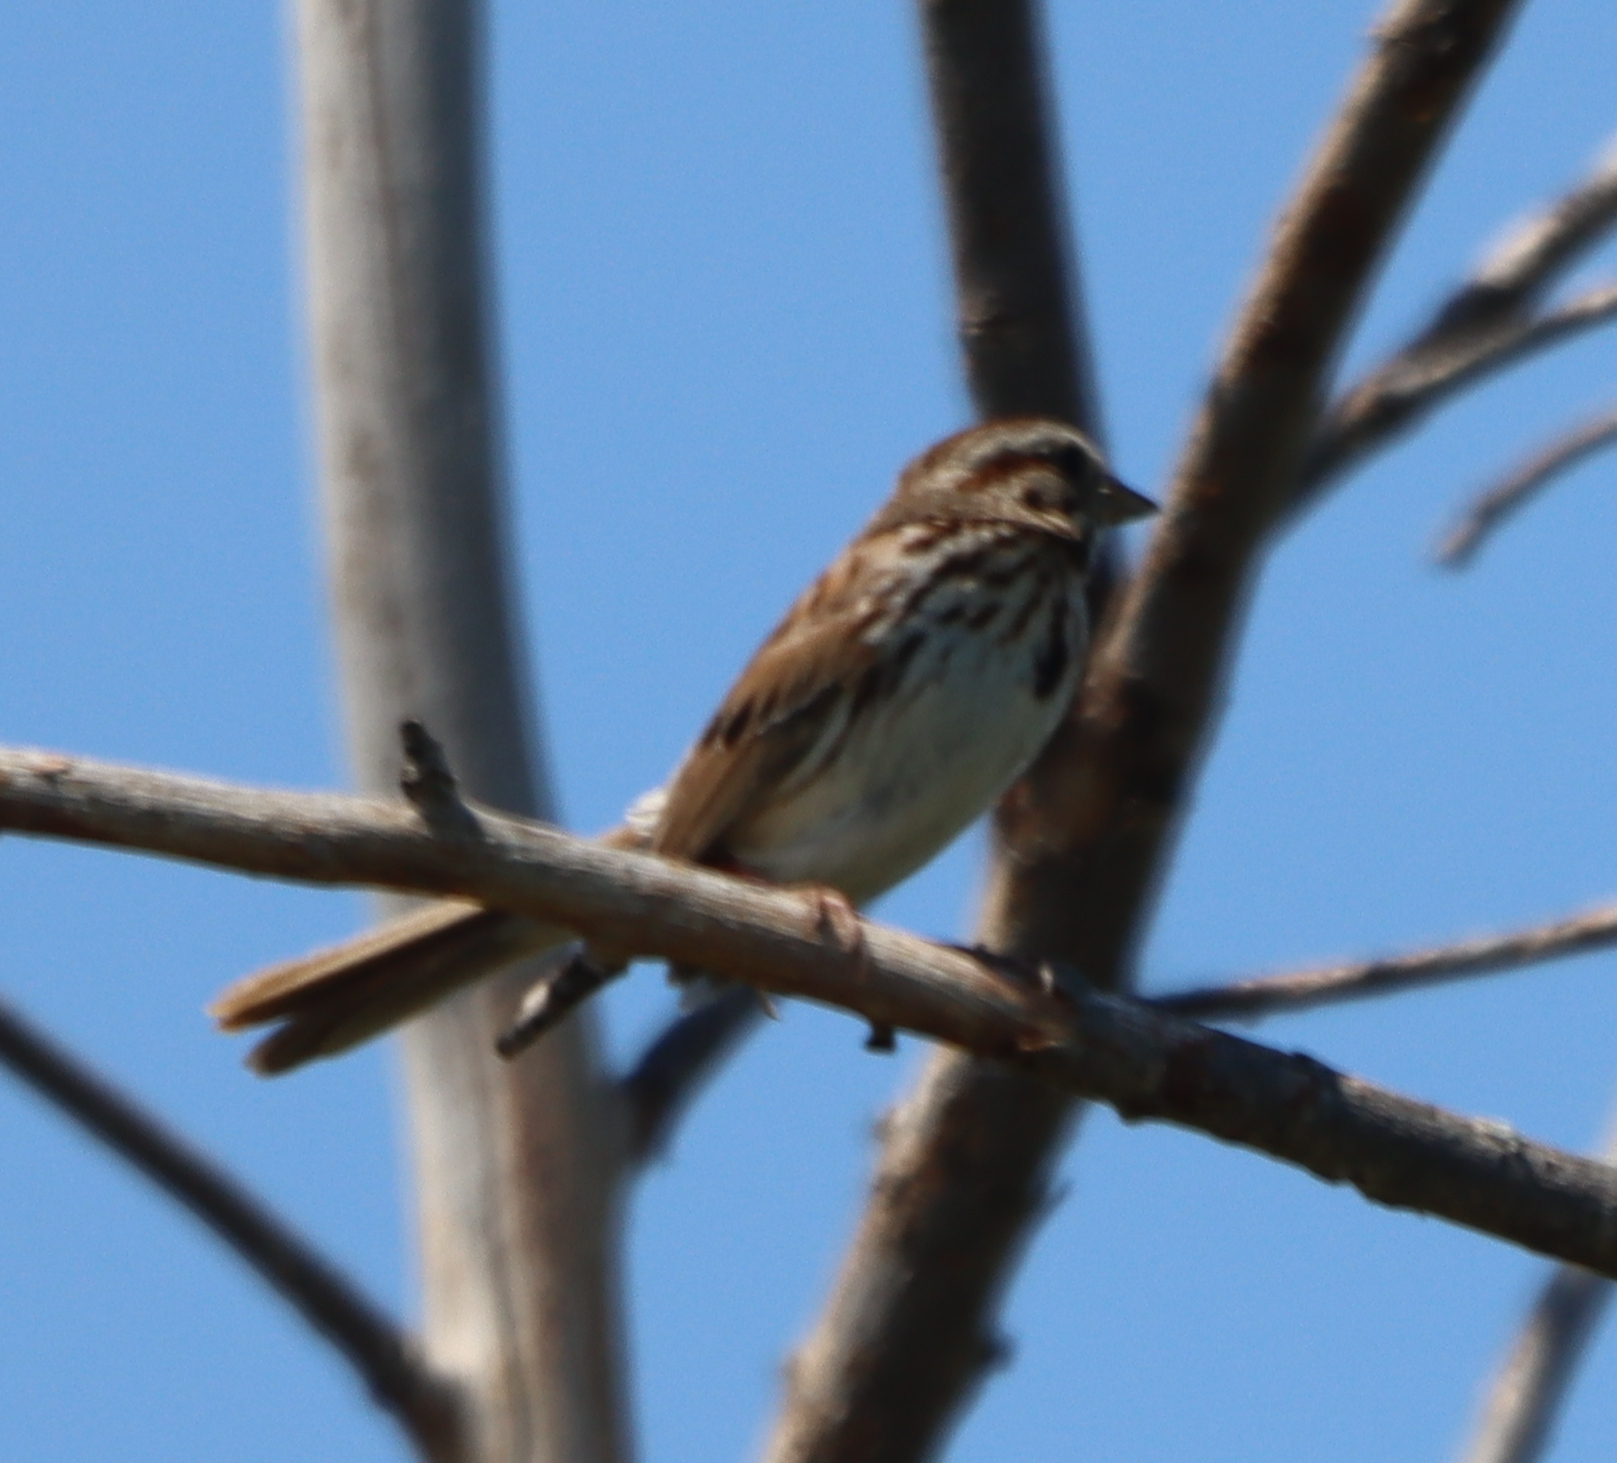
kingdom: Animalia
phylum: Chordata
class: Aves
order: Passeriformes
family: Passerellidae
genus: Melospiza
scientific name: Melospiza melodia
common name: Song sparrow
